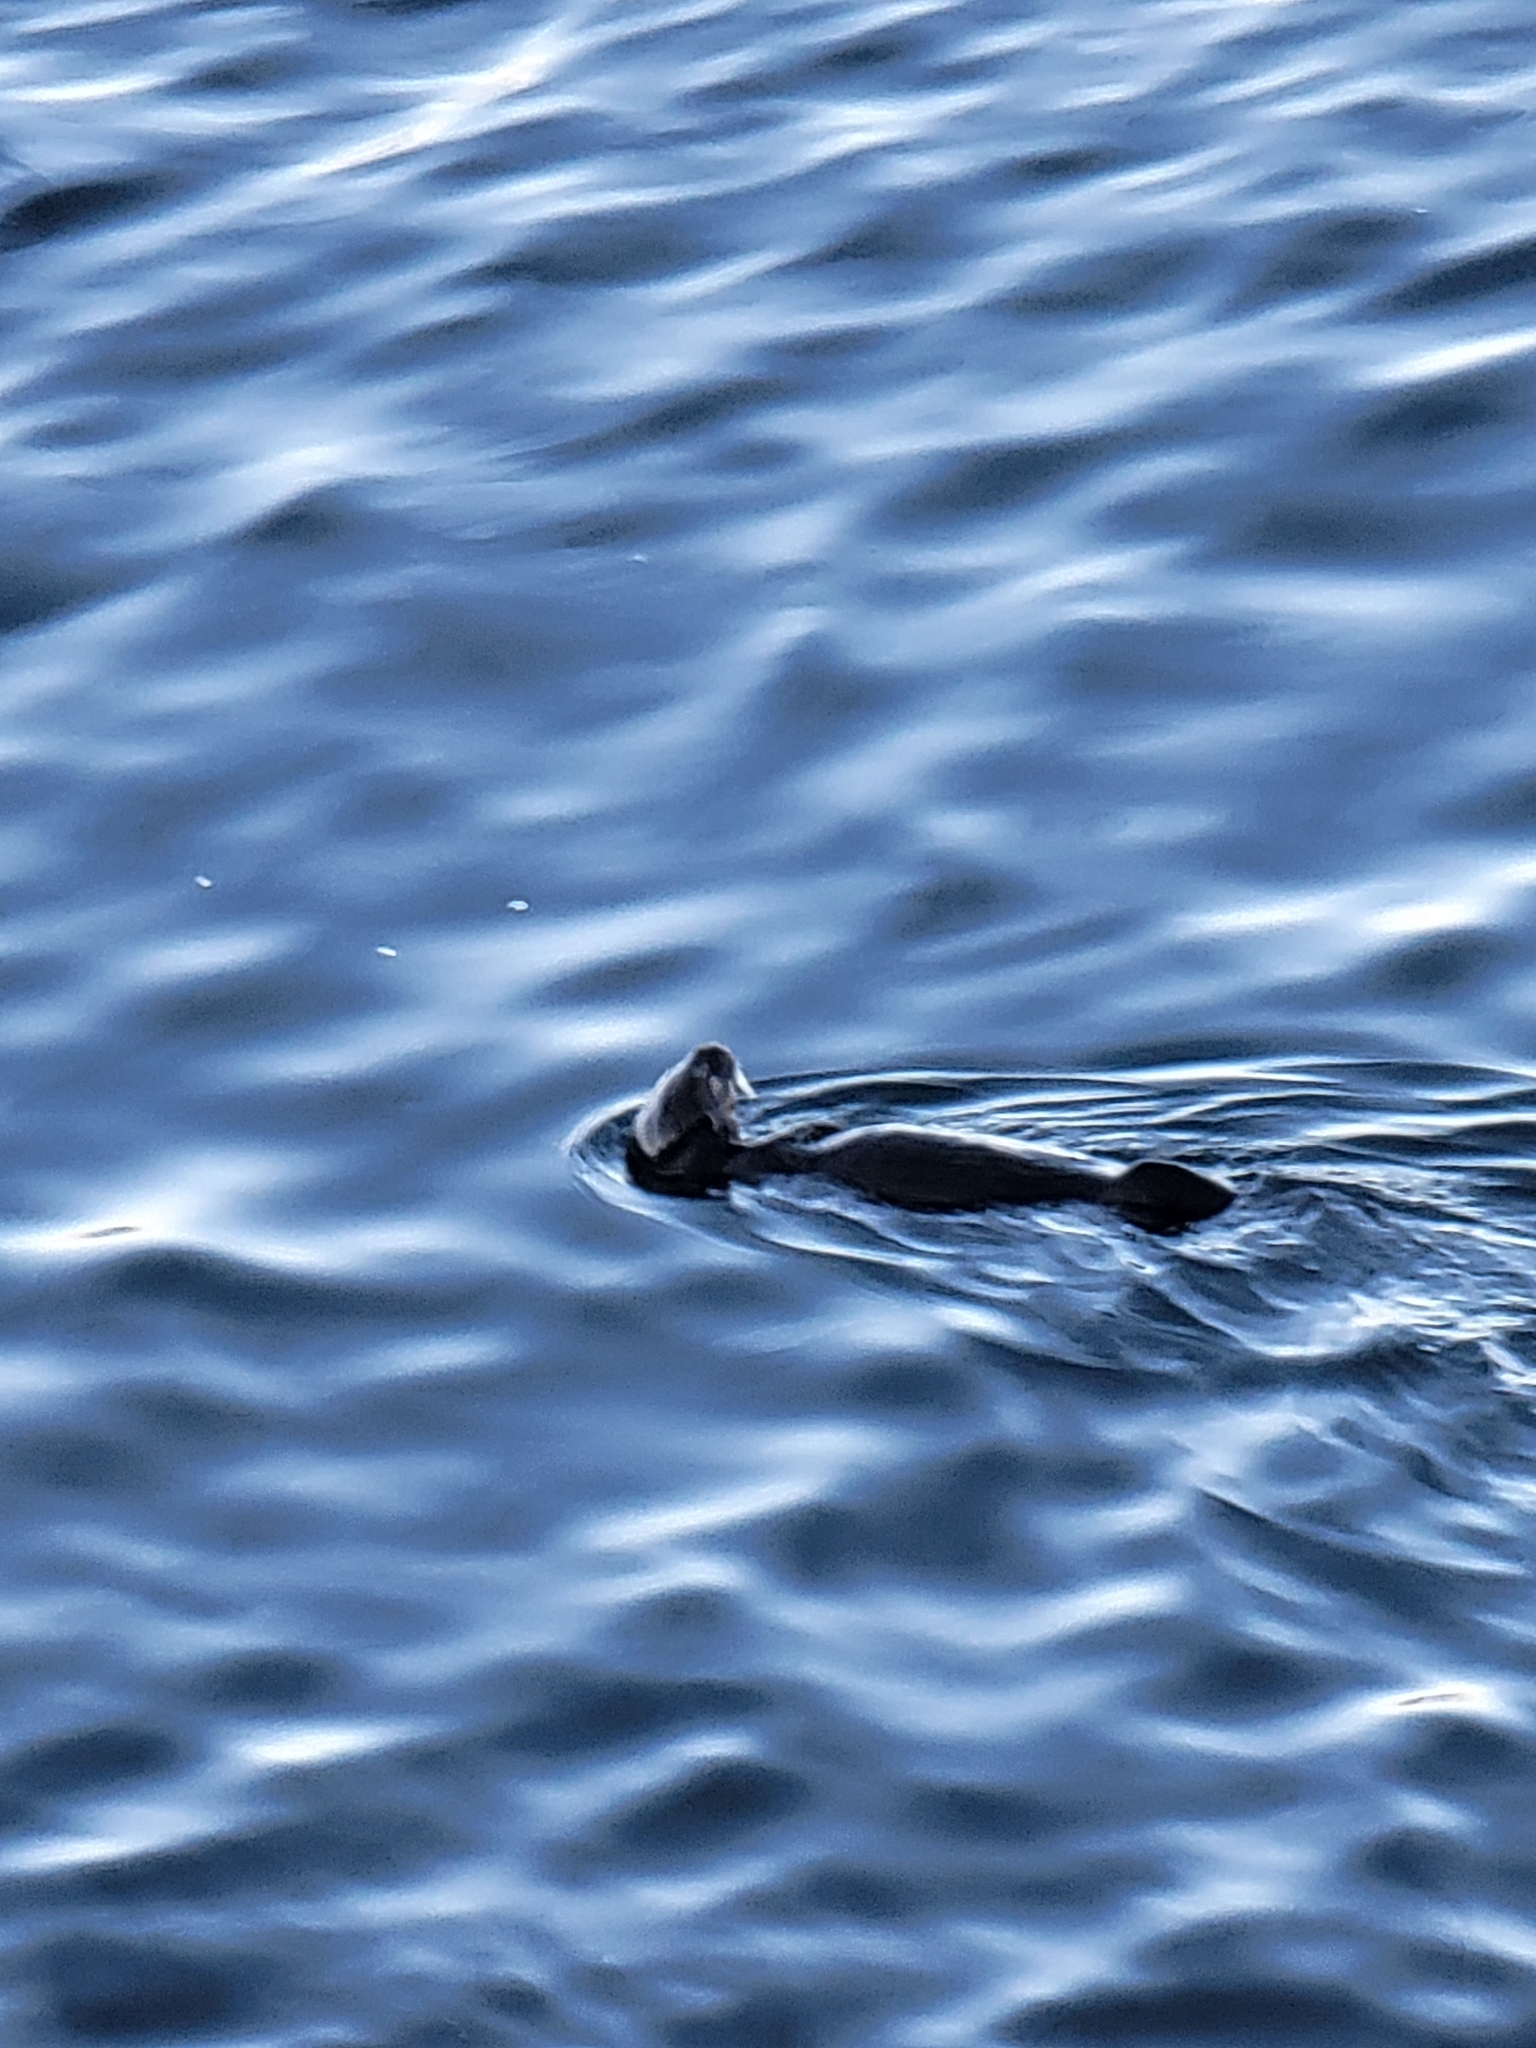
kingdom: Animalia
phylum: Chordata
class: Mammalia
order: Carnivora
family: Mustelidae
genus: Enhydra
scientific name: Enhydra lutris
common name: Sea otter
